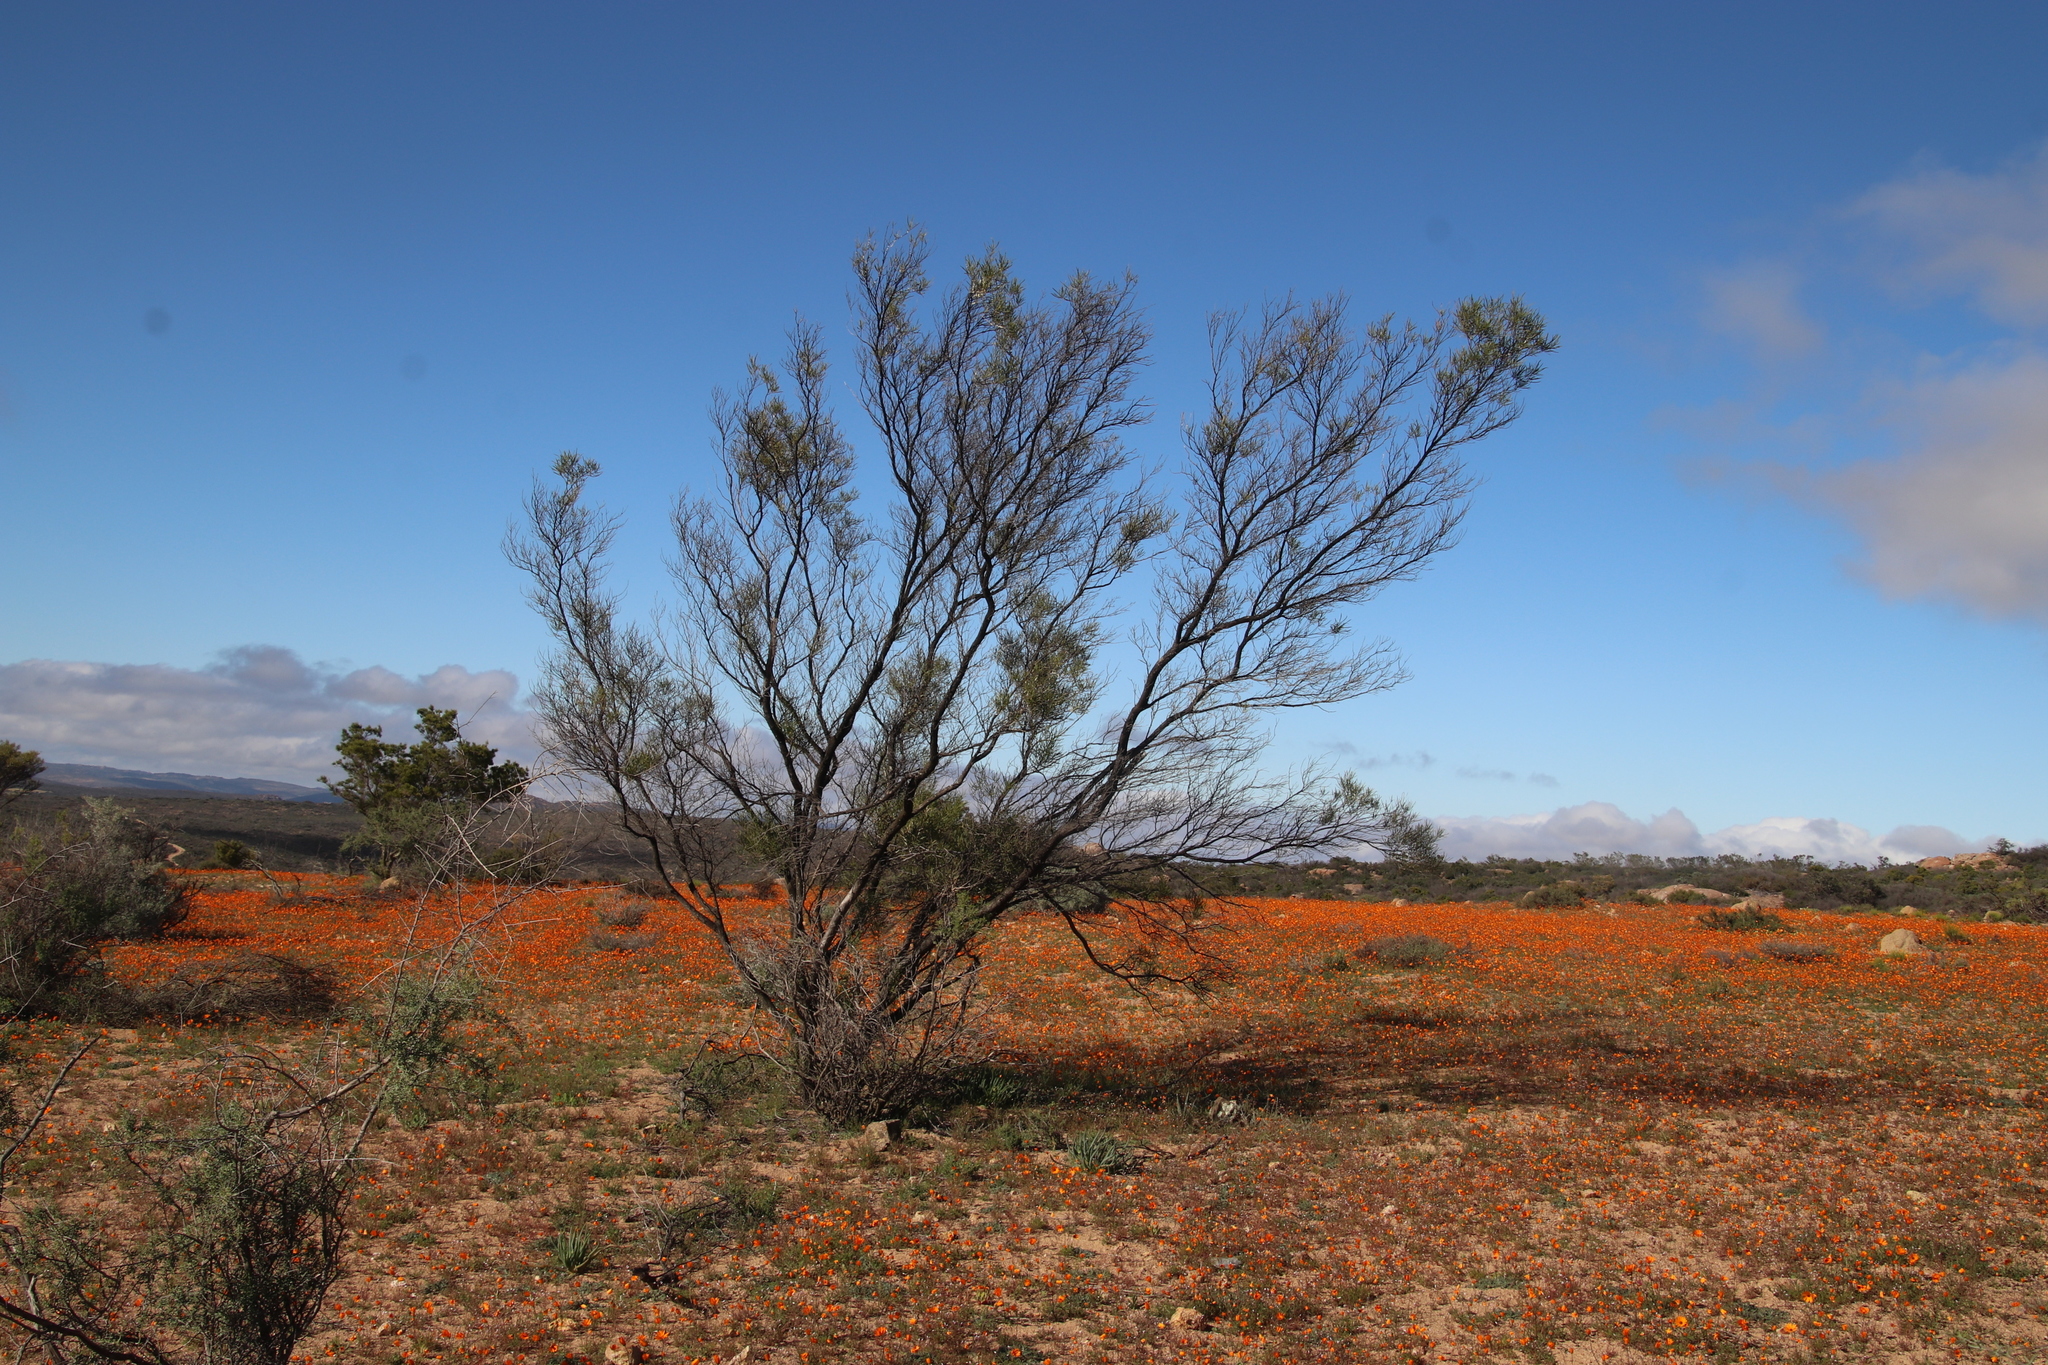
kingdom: Plantae
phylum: Tracheophyta
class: Magnoliopsida
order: Sapindales
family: Sapindaceae
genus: Dodonaea
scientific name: Dodonaea viscosa
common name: Hopbush
